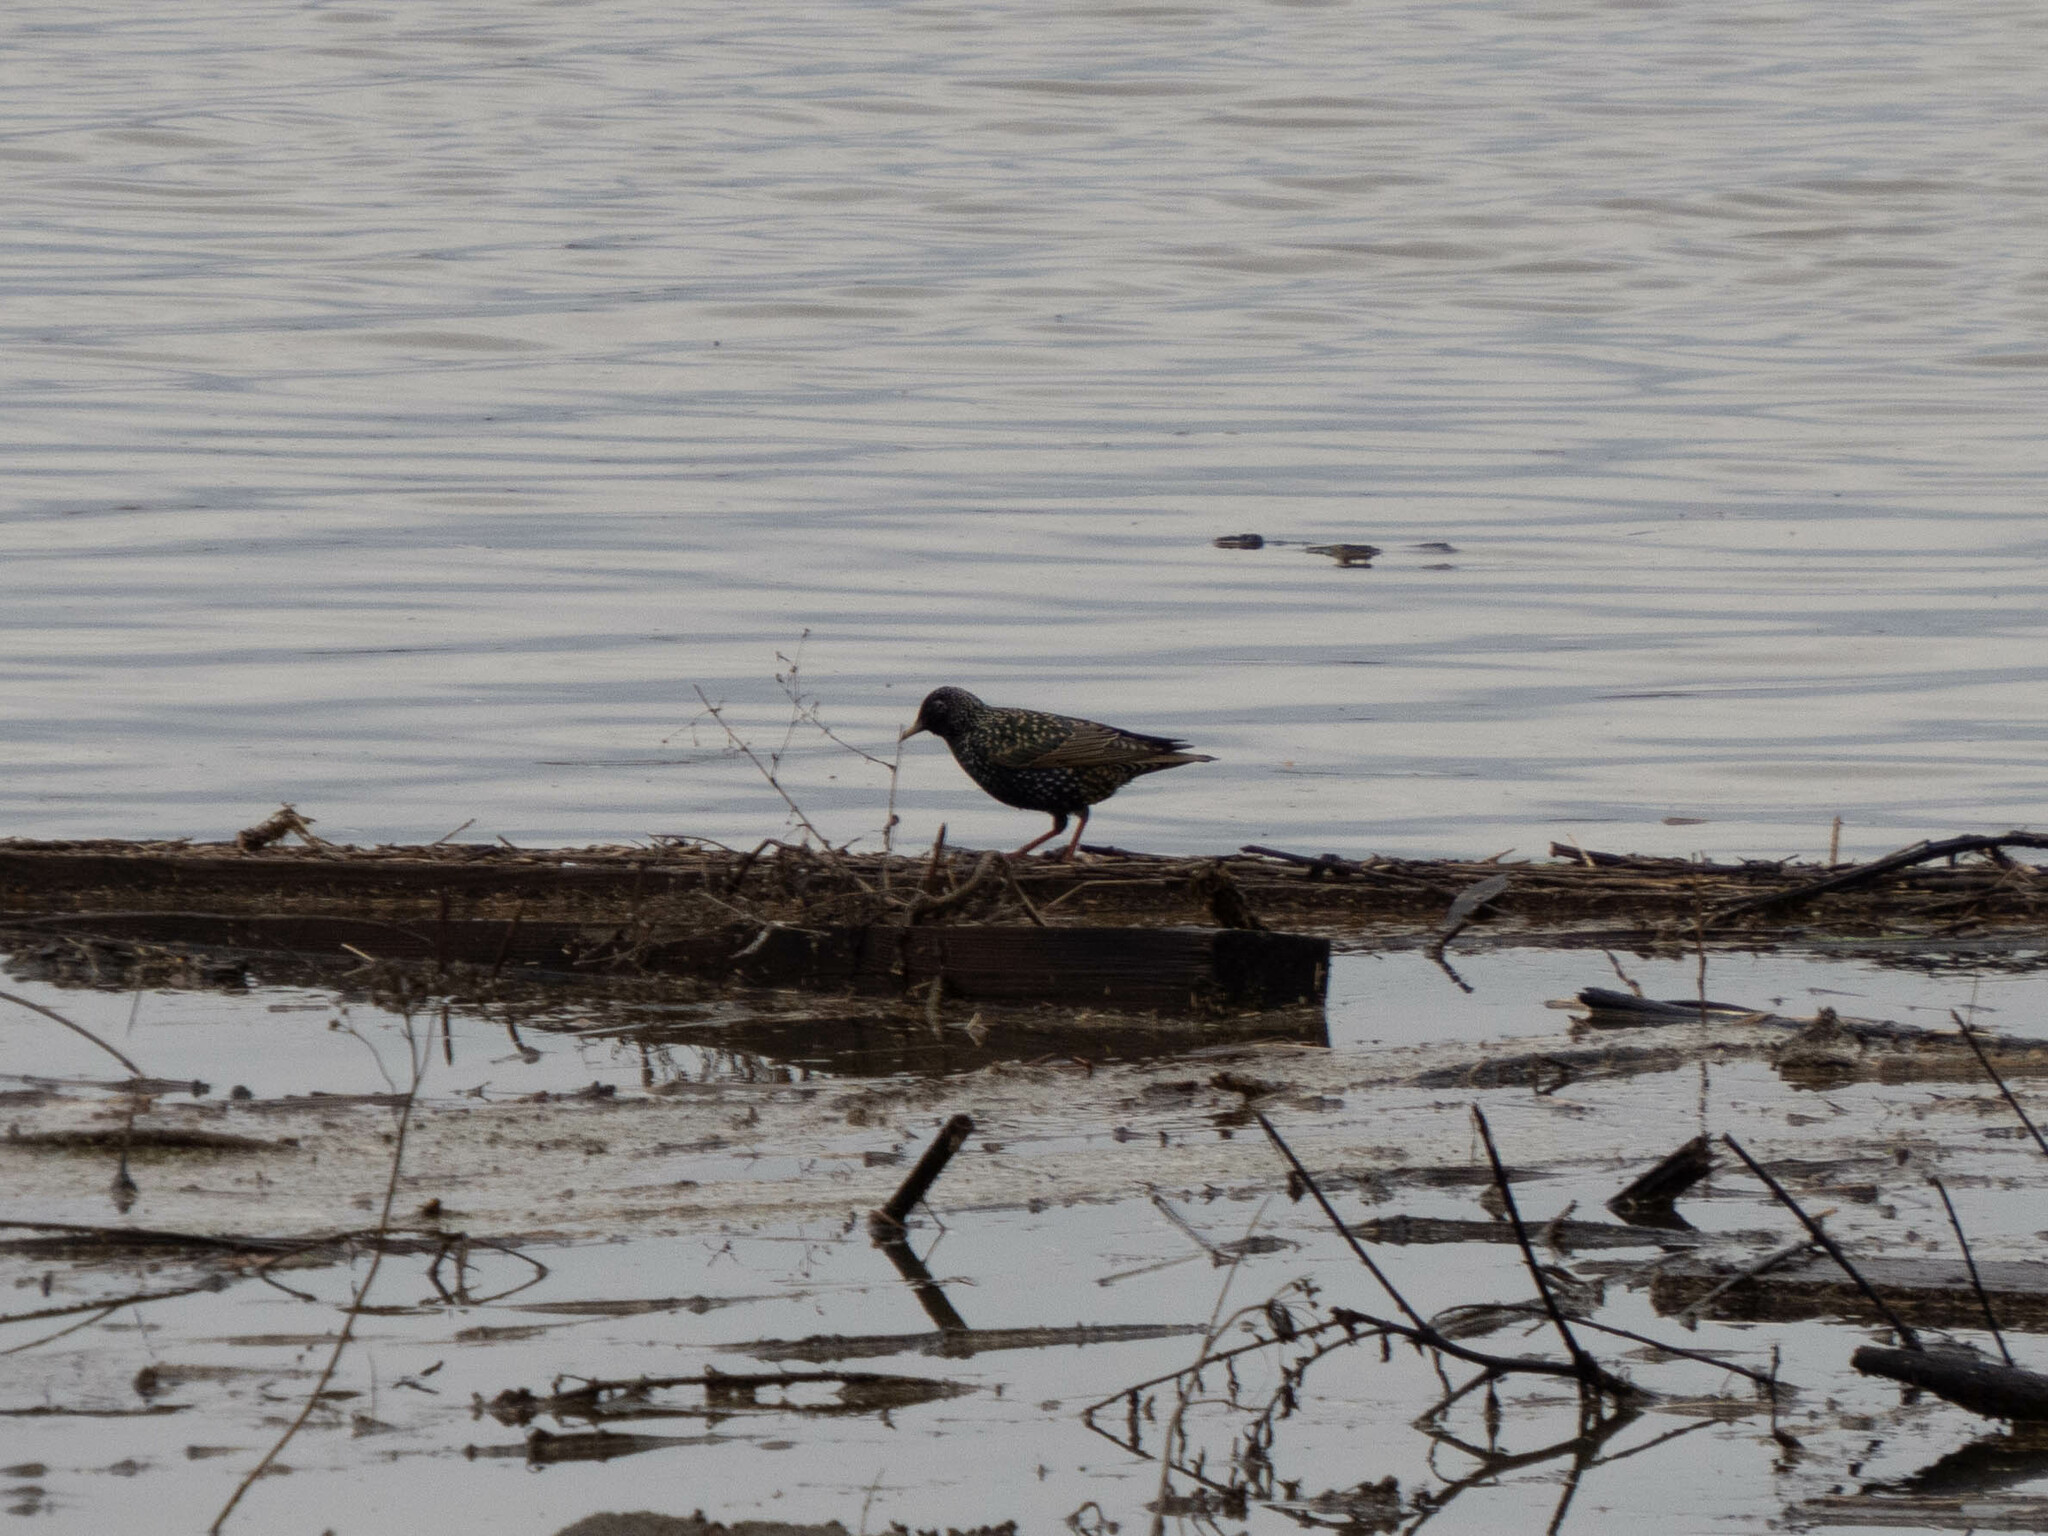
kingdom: Animalia
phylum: Chordata
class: Aves
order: Passeriformes
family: Sturnidae
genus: Sturnus
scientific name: Sturnus vulgaris
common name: Common starling
